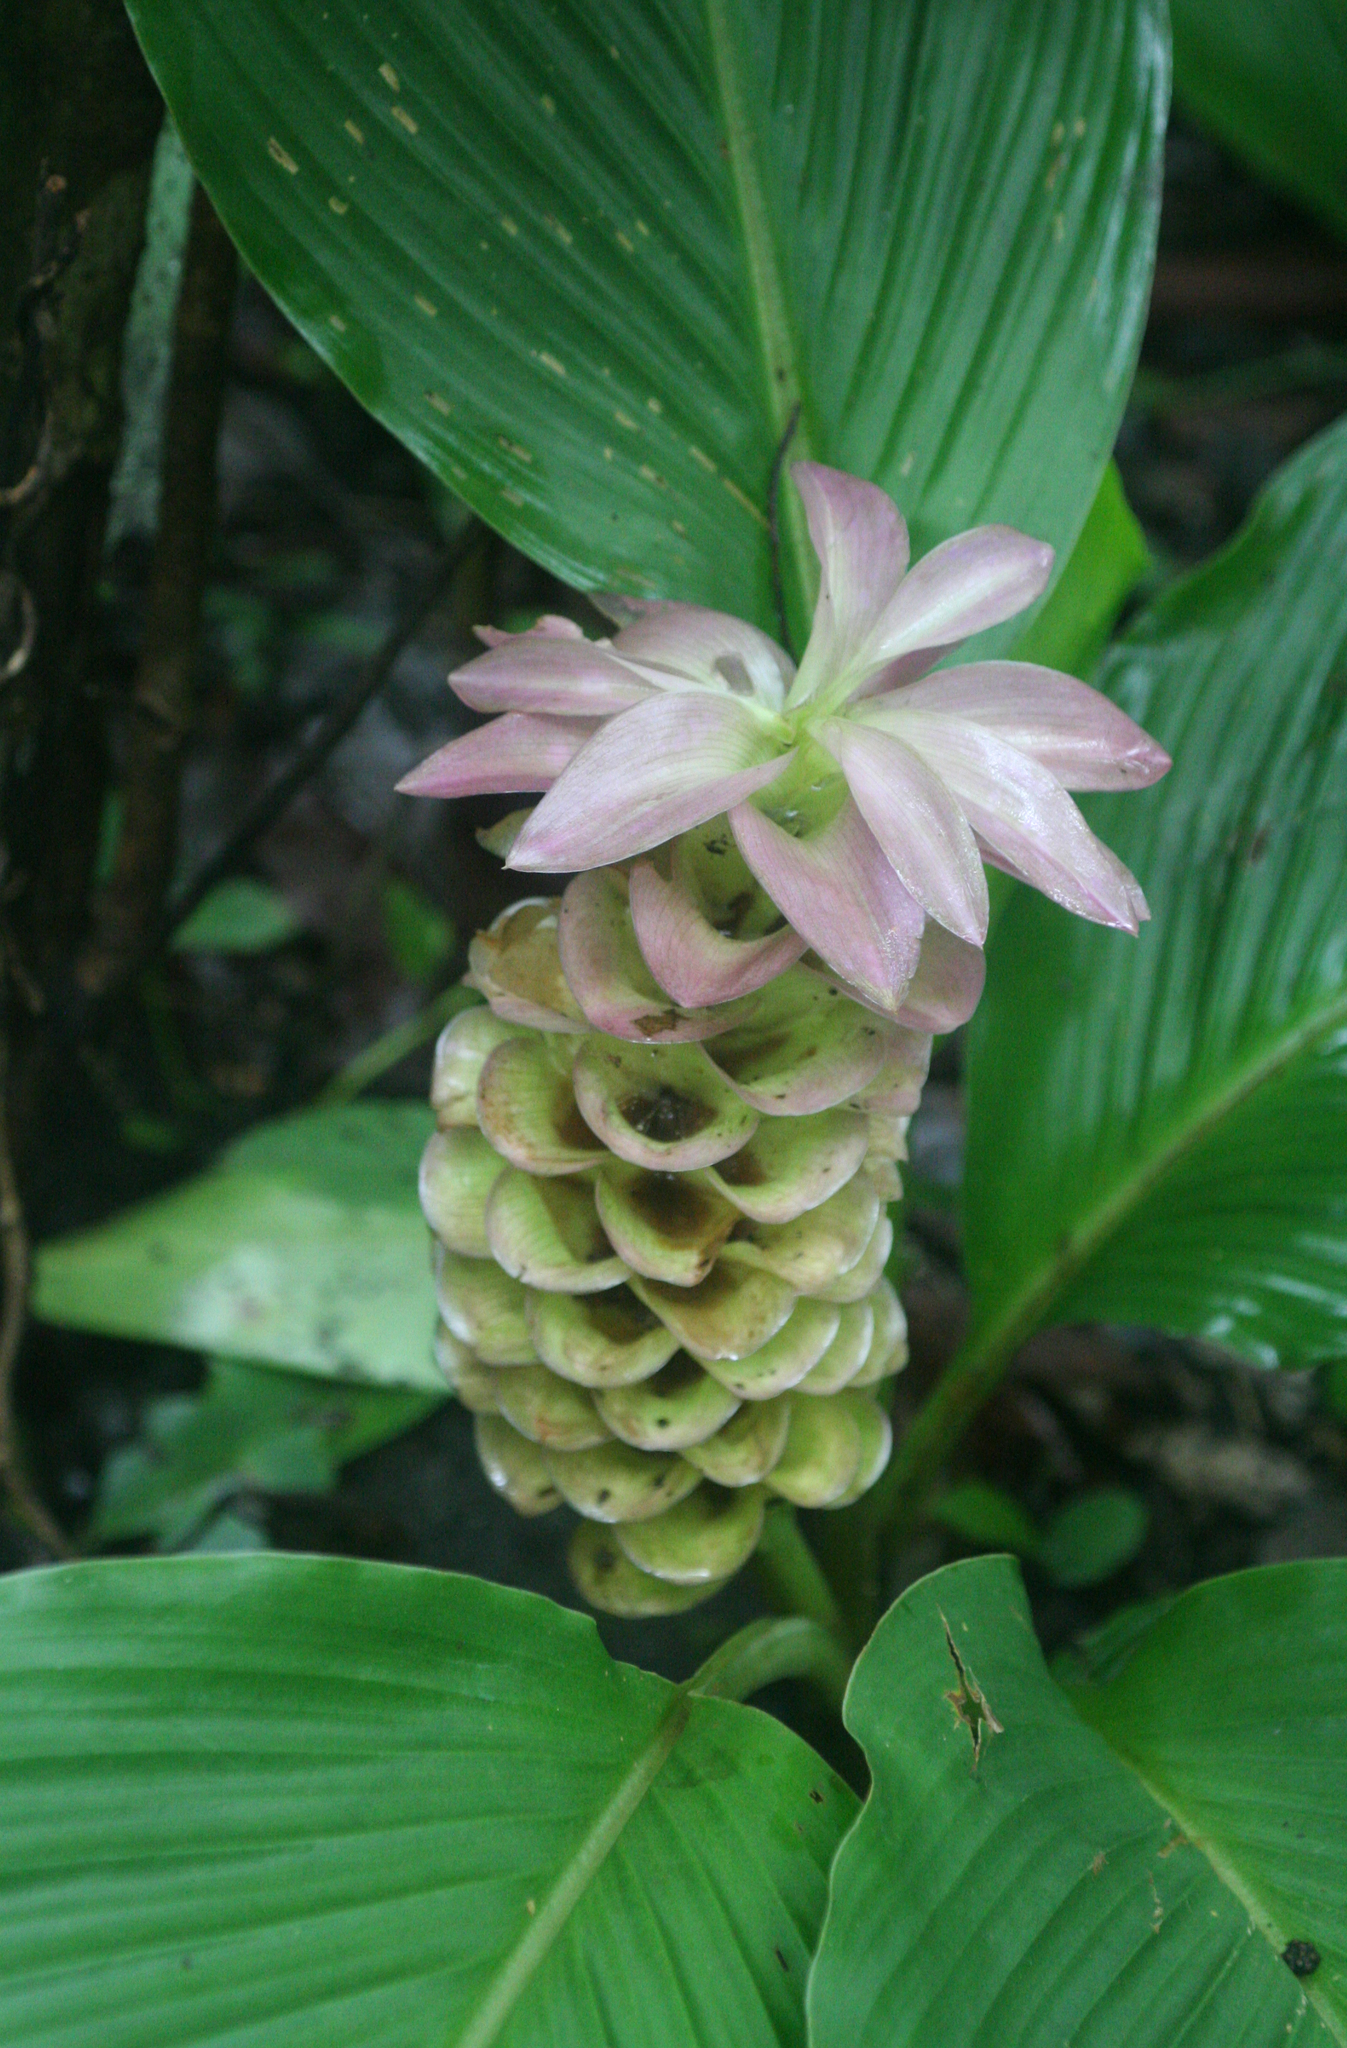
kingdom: Plantae
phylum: Tracheophyta
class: Liliopsida
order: Zingiberales
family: Zingiberaceae
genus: Curcuma
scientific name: Curcuma petiolata
